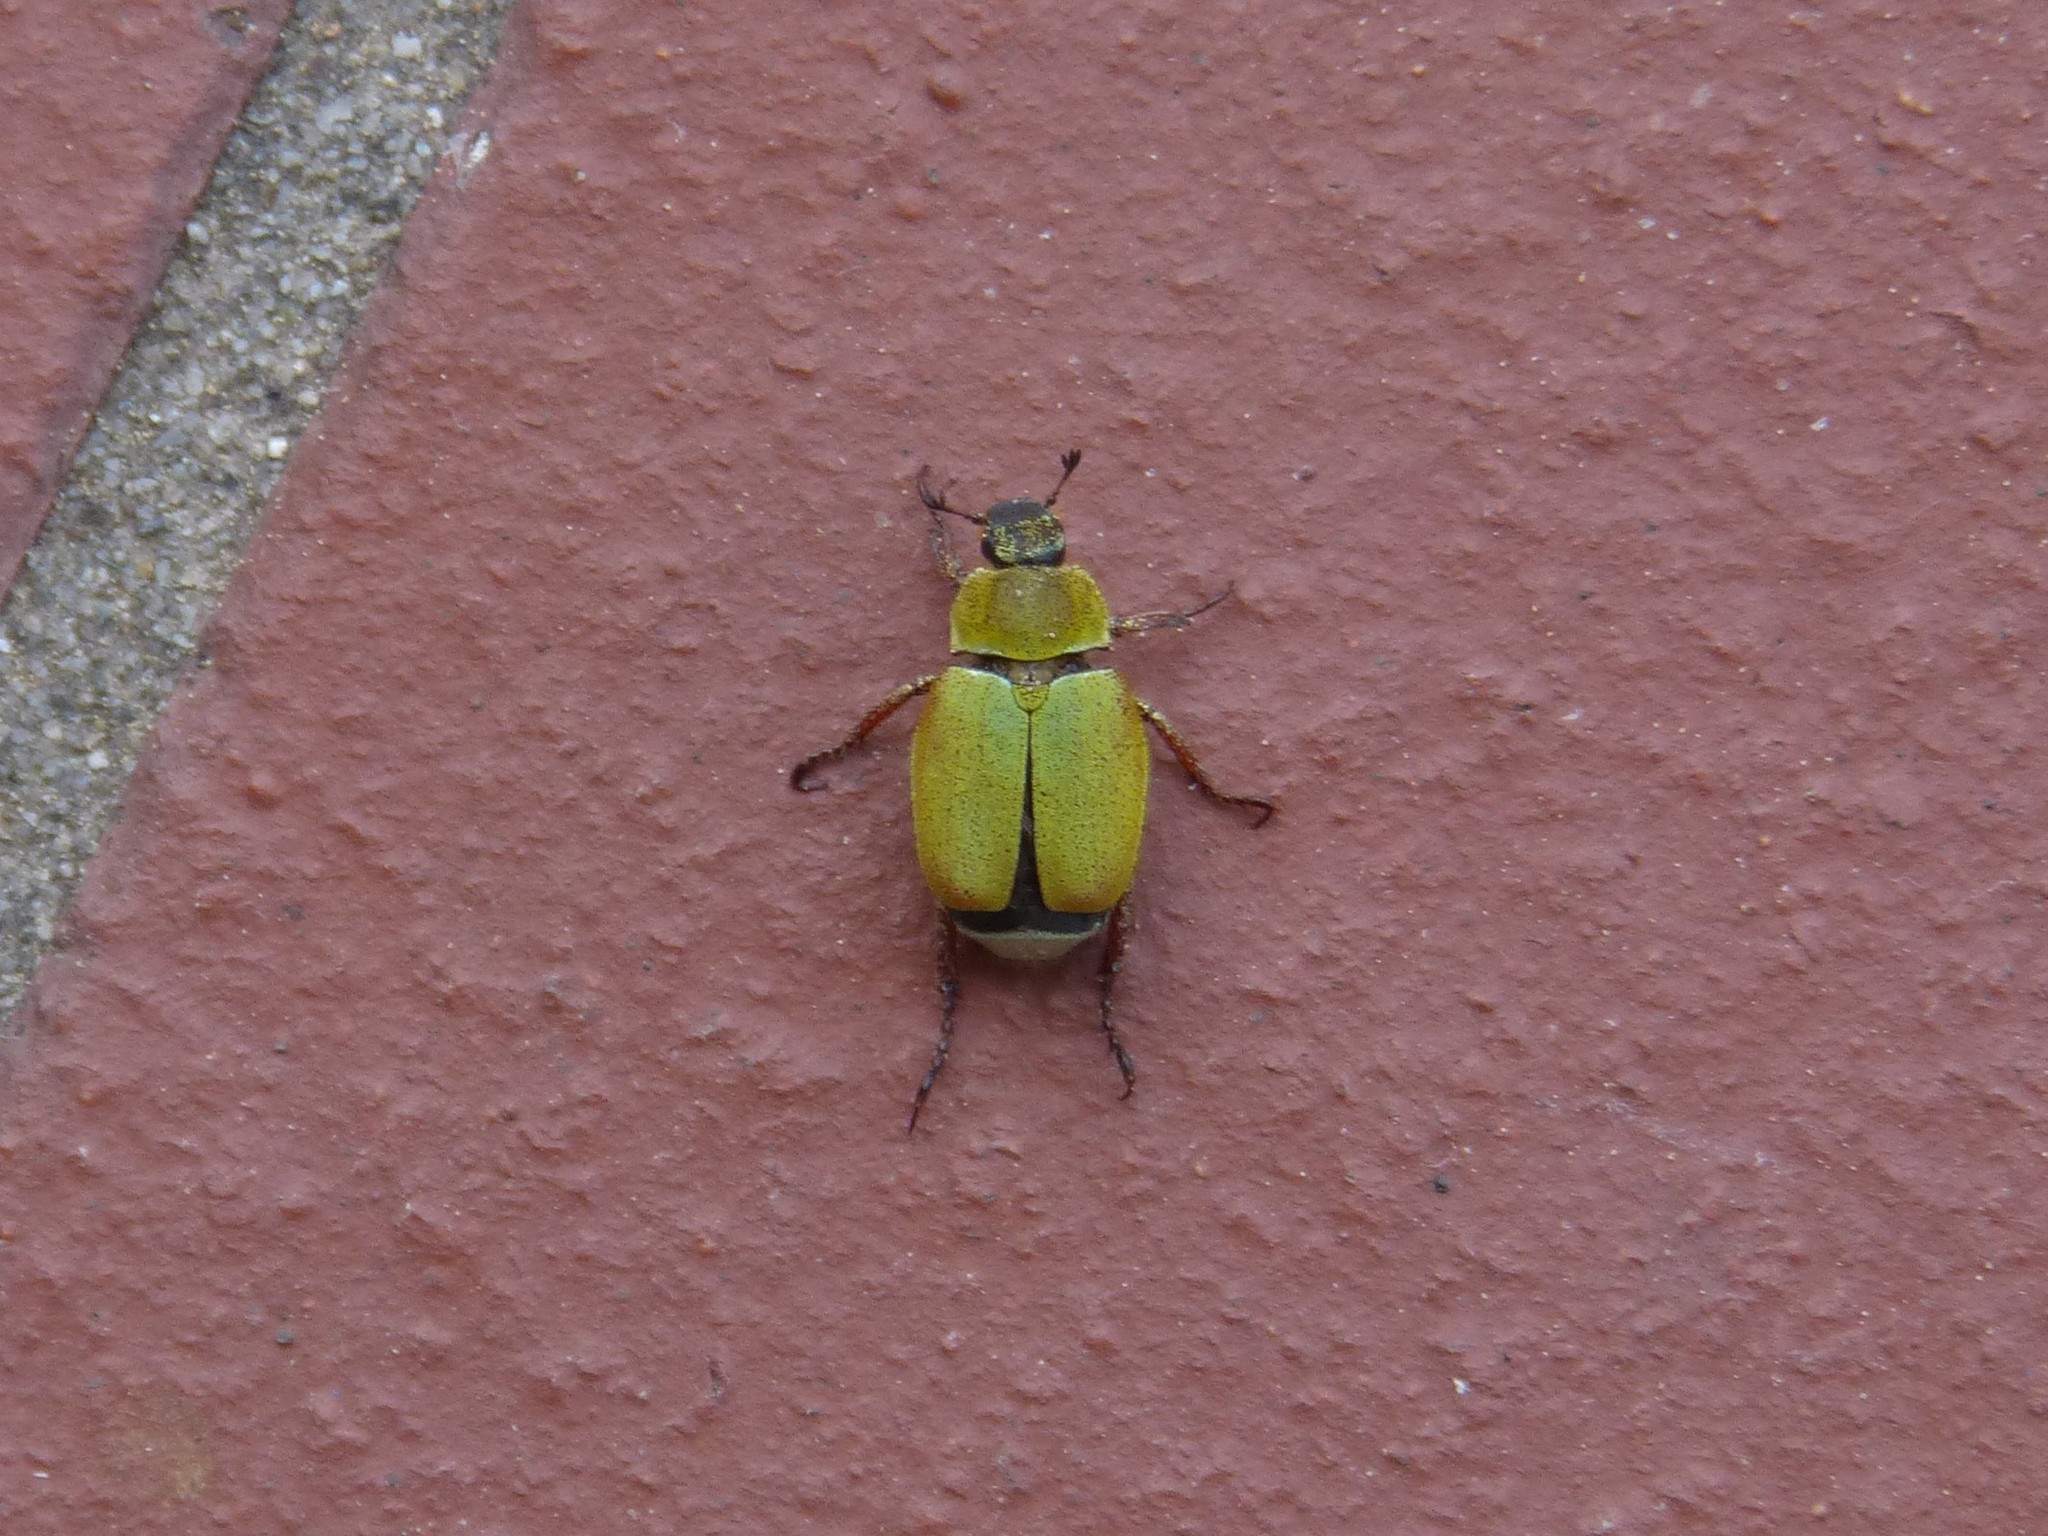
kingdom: Animalia
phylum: Arthropoda
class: Insecta
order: Coleoptera
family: Scarabaeidae
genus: Hoplia
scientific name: Hoplia argentea
